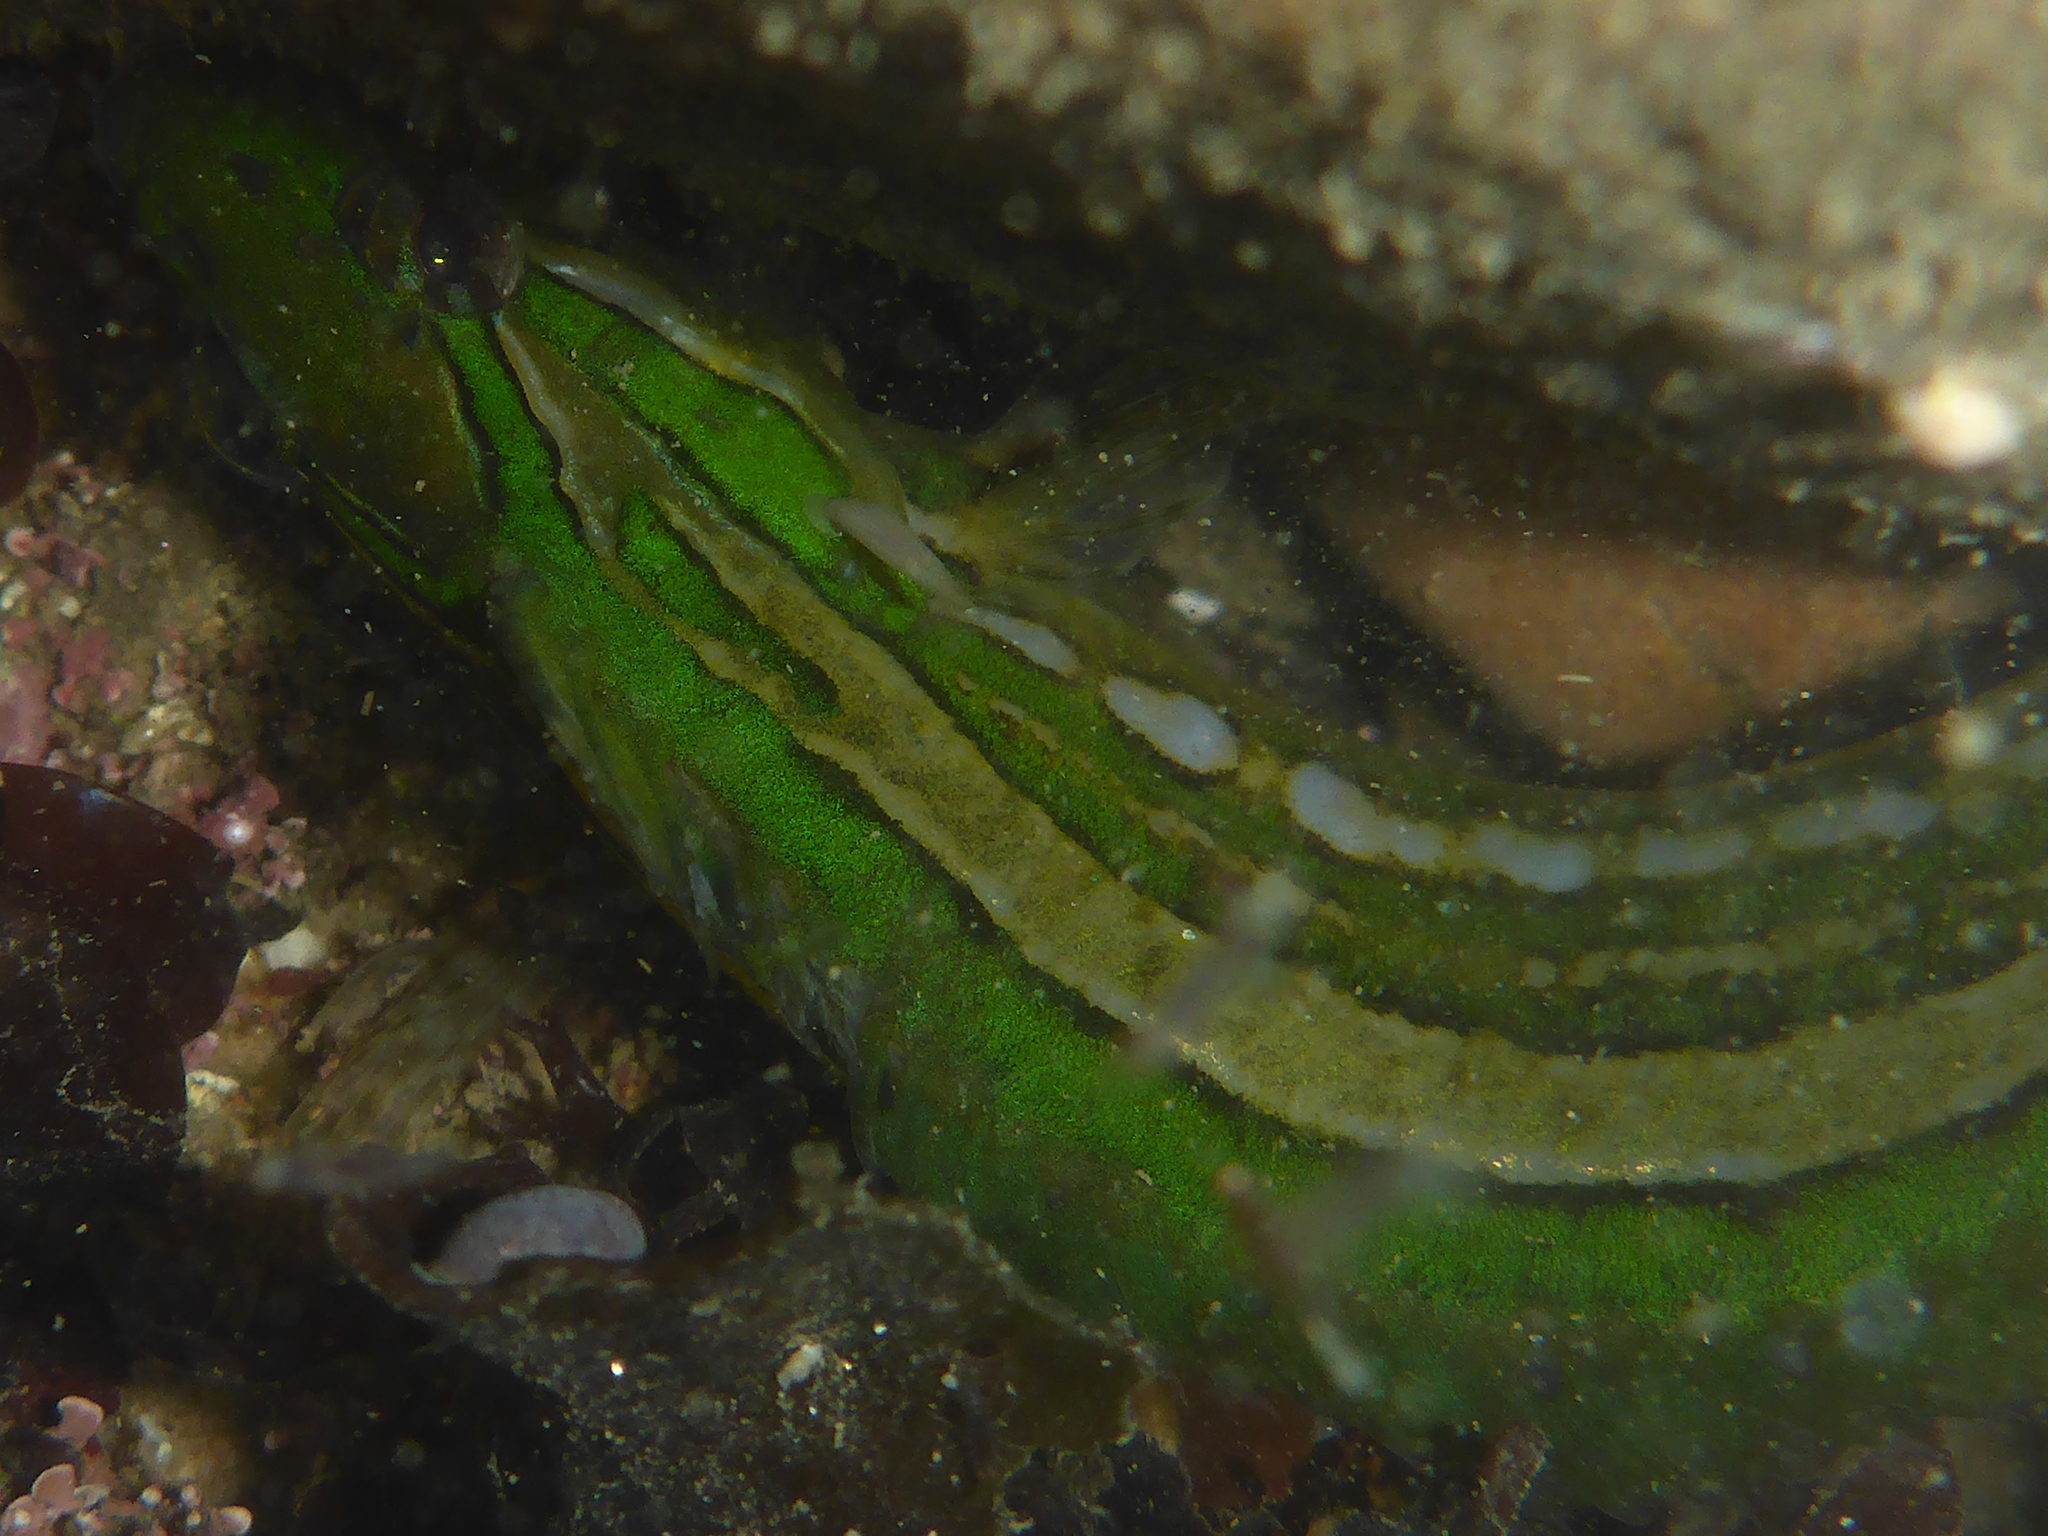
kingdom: Animalia
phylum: Chordata
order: Perciformes
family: Clinidae
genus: Gibbonsia
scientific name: Gibbonsia metzi
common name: Striped kelpfish
